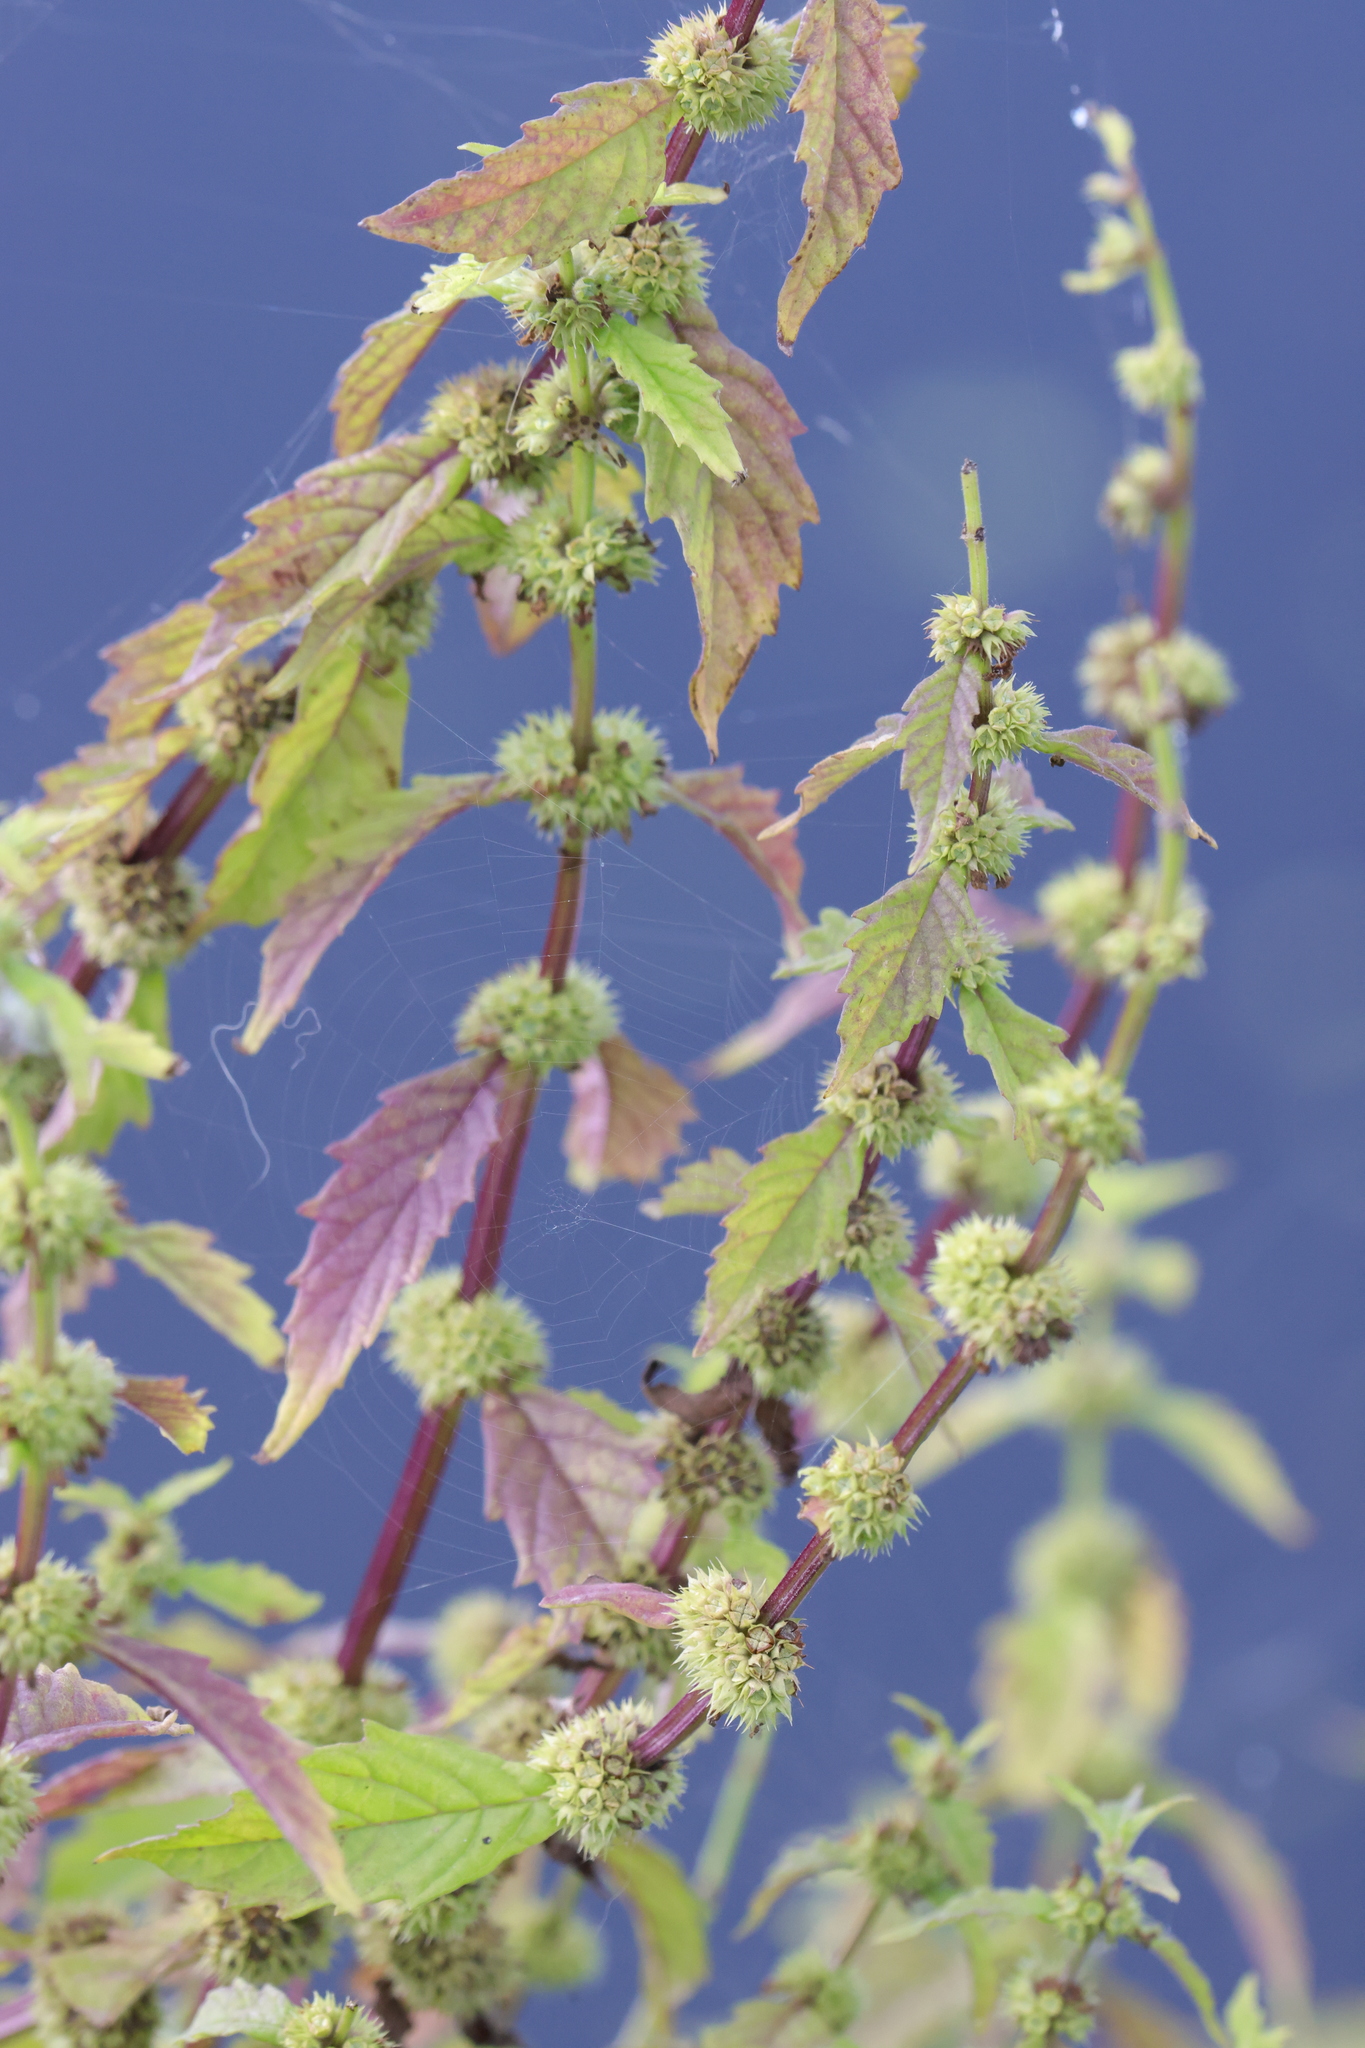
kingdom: Plantae
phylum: Tracheophyta
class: Magnoliopsida
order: Lamiales
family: Lamiaceae
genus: Lycopus
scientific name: Lycopus europaeus
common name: European bugleweed
